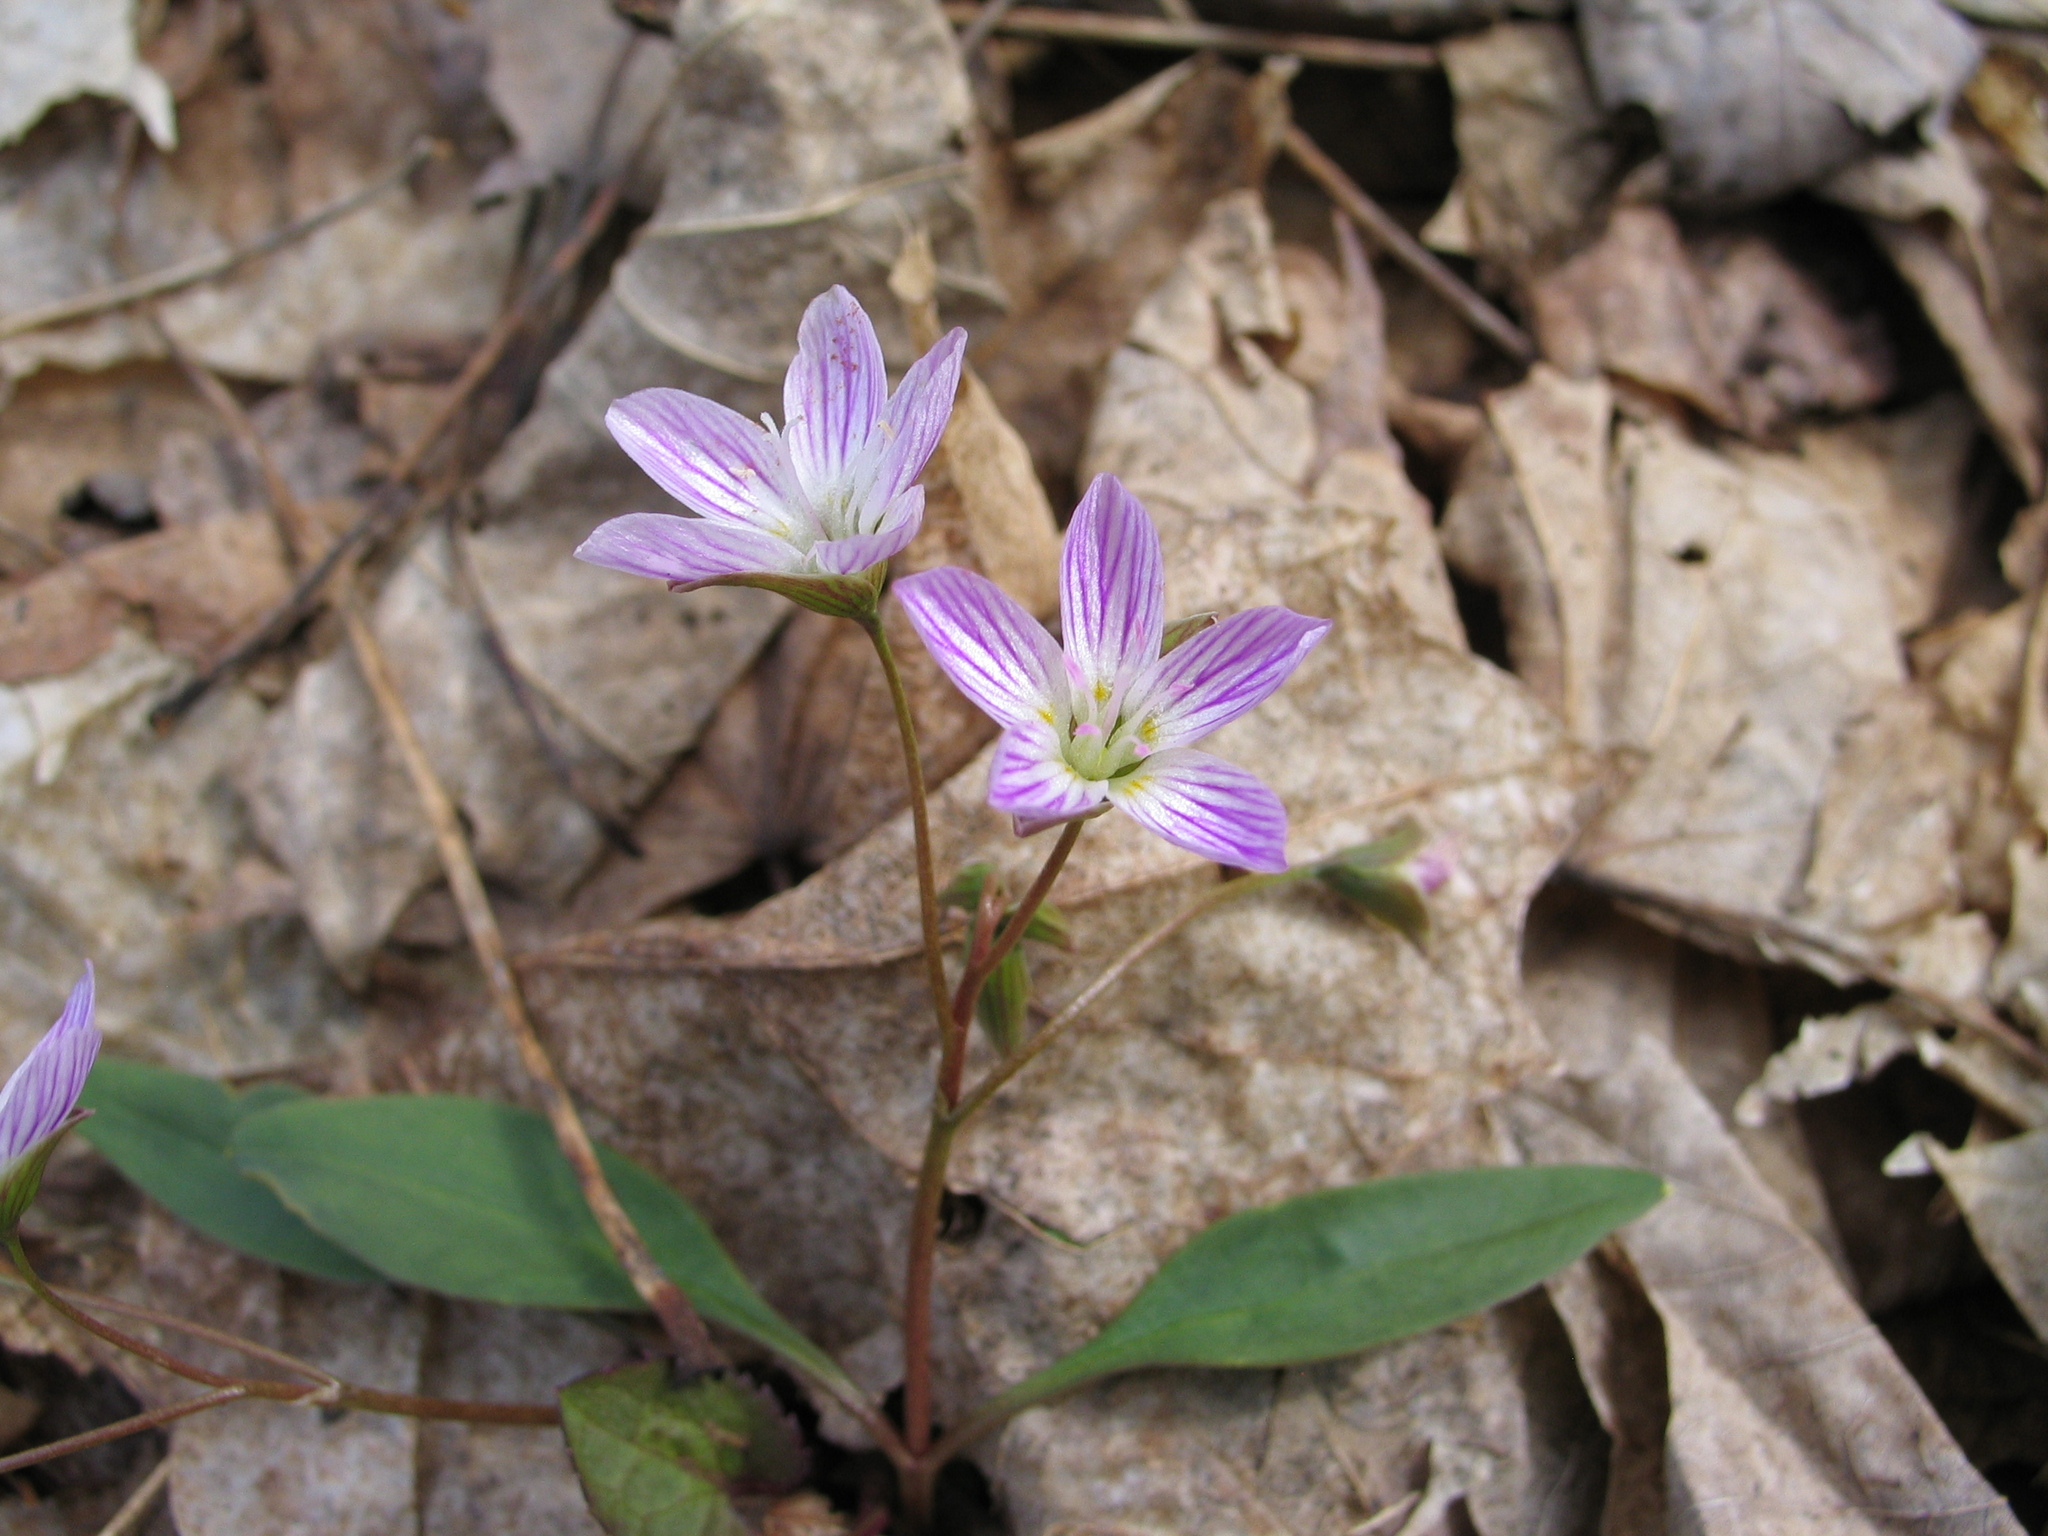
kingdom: Plantae
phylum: Tracheophyta
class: Magnoliopsida
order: Caryophyllales
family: Montiaceae
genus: Claytonia
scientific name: Claytonia caroliniana
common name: Carolina spring beauty
